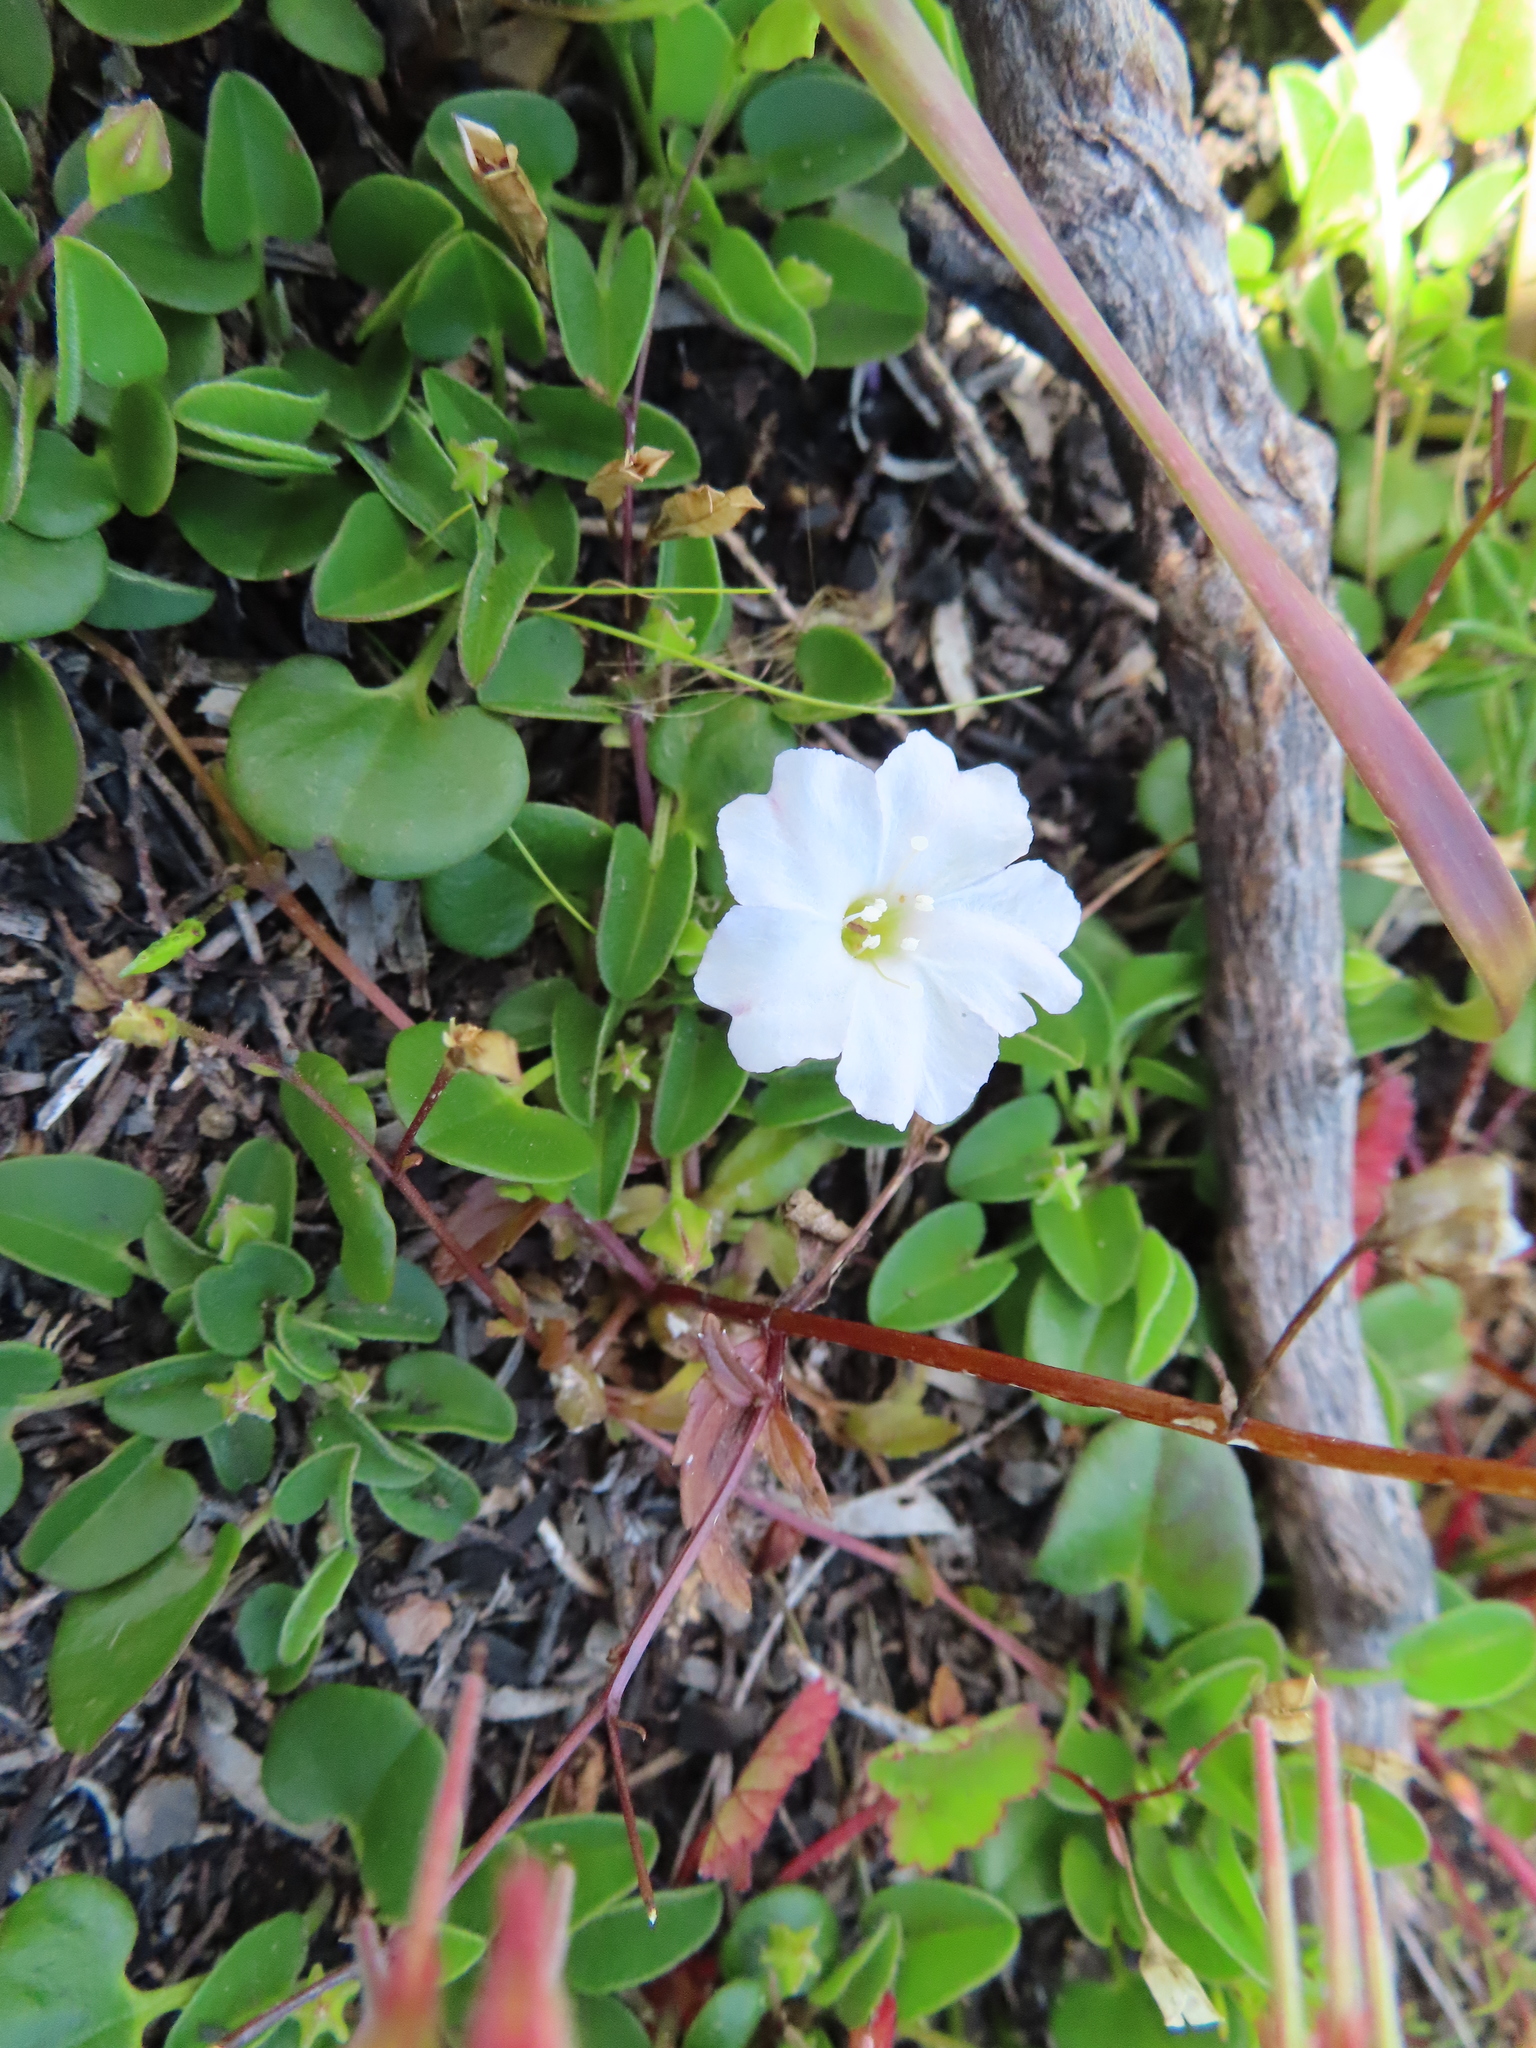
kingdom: Plantae
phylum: Tracheophyta
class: Magnoliopsida
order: Solanales
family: Convolvulaceae
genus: Falkia
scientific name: Falkia repens
